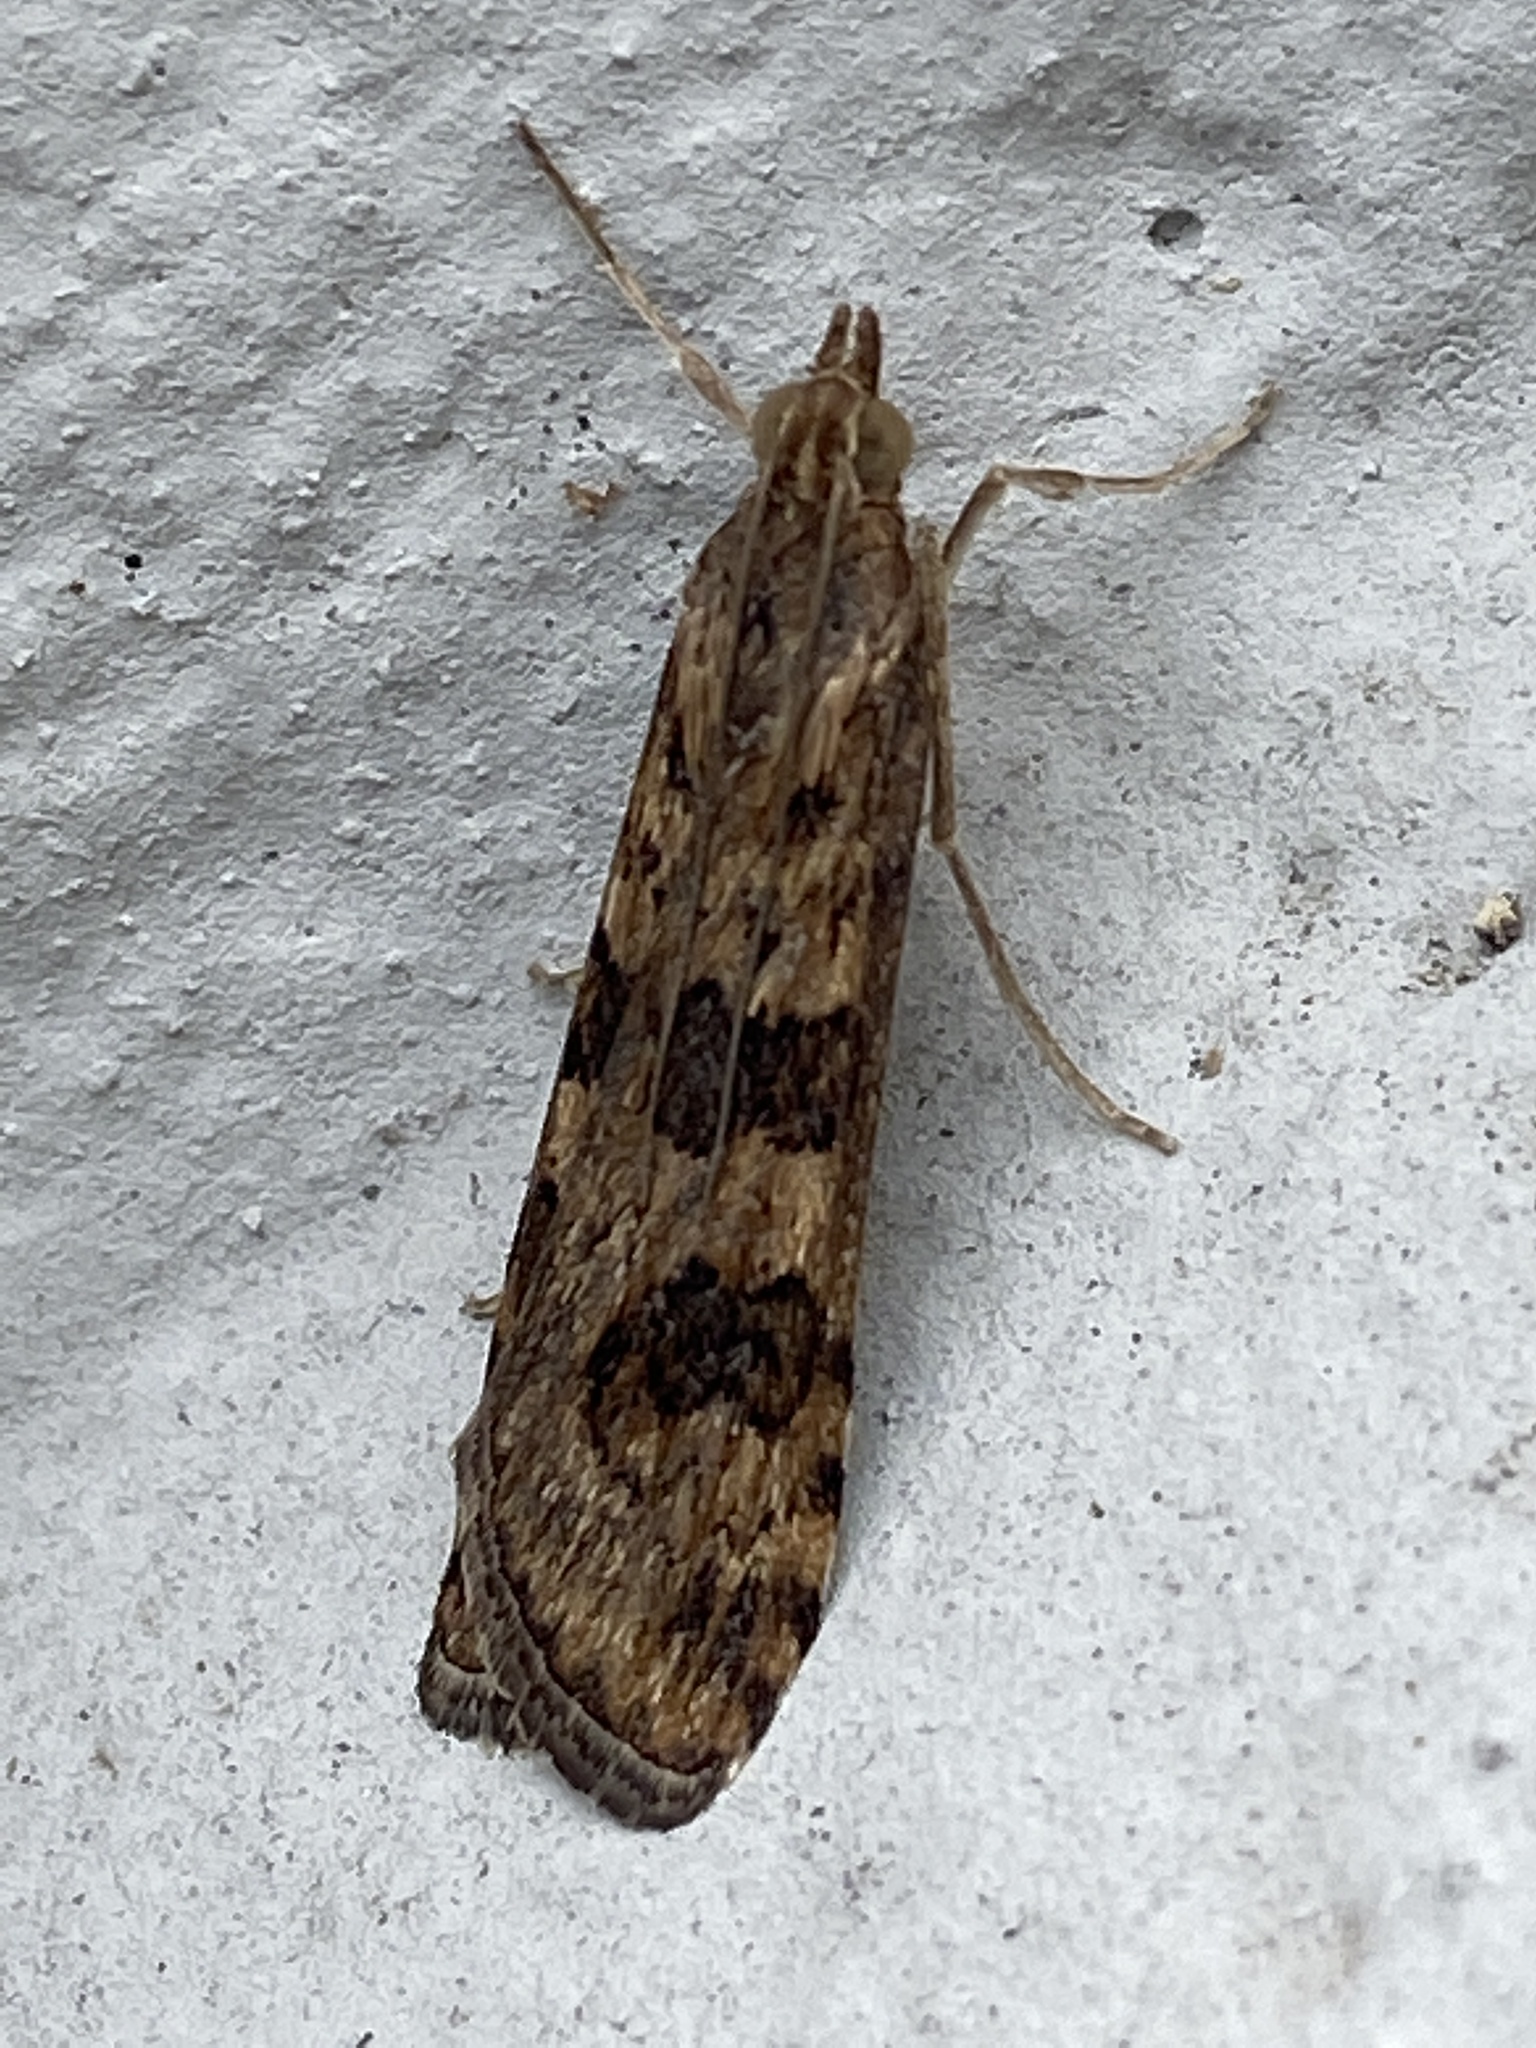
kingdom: Animalia
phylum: Arthropoda
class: Insecta
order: Lepidoptera
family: Crambidae
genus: Nomophila
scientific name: Nomophila noctuella
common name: Rush veneer
